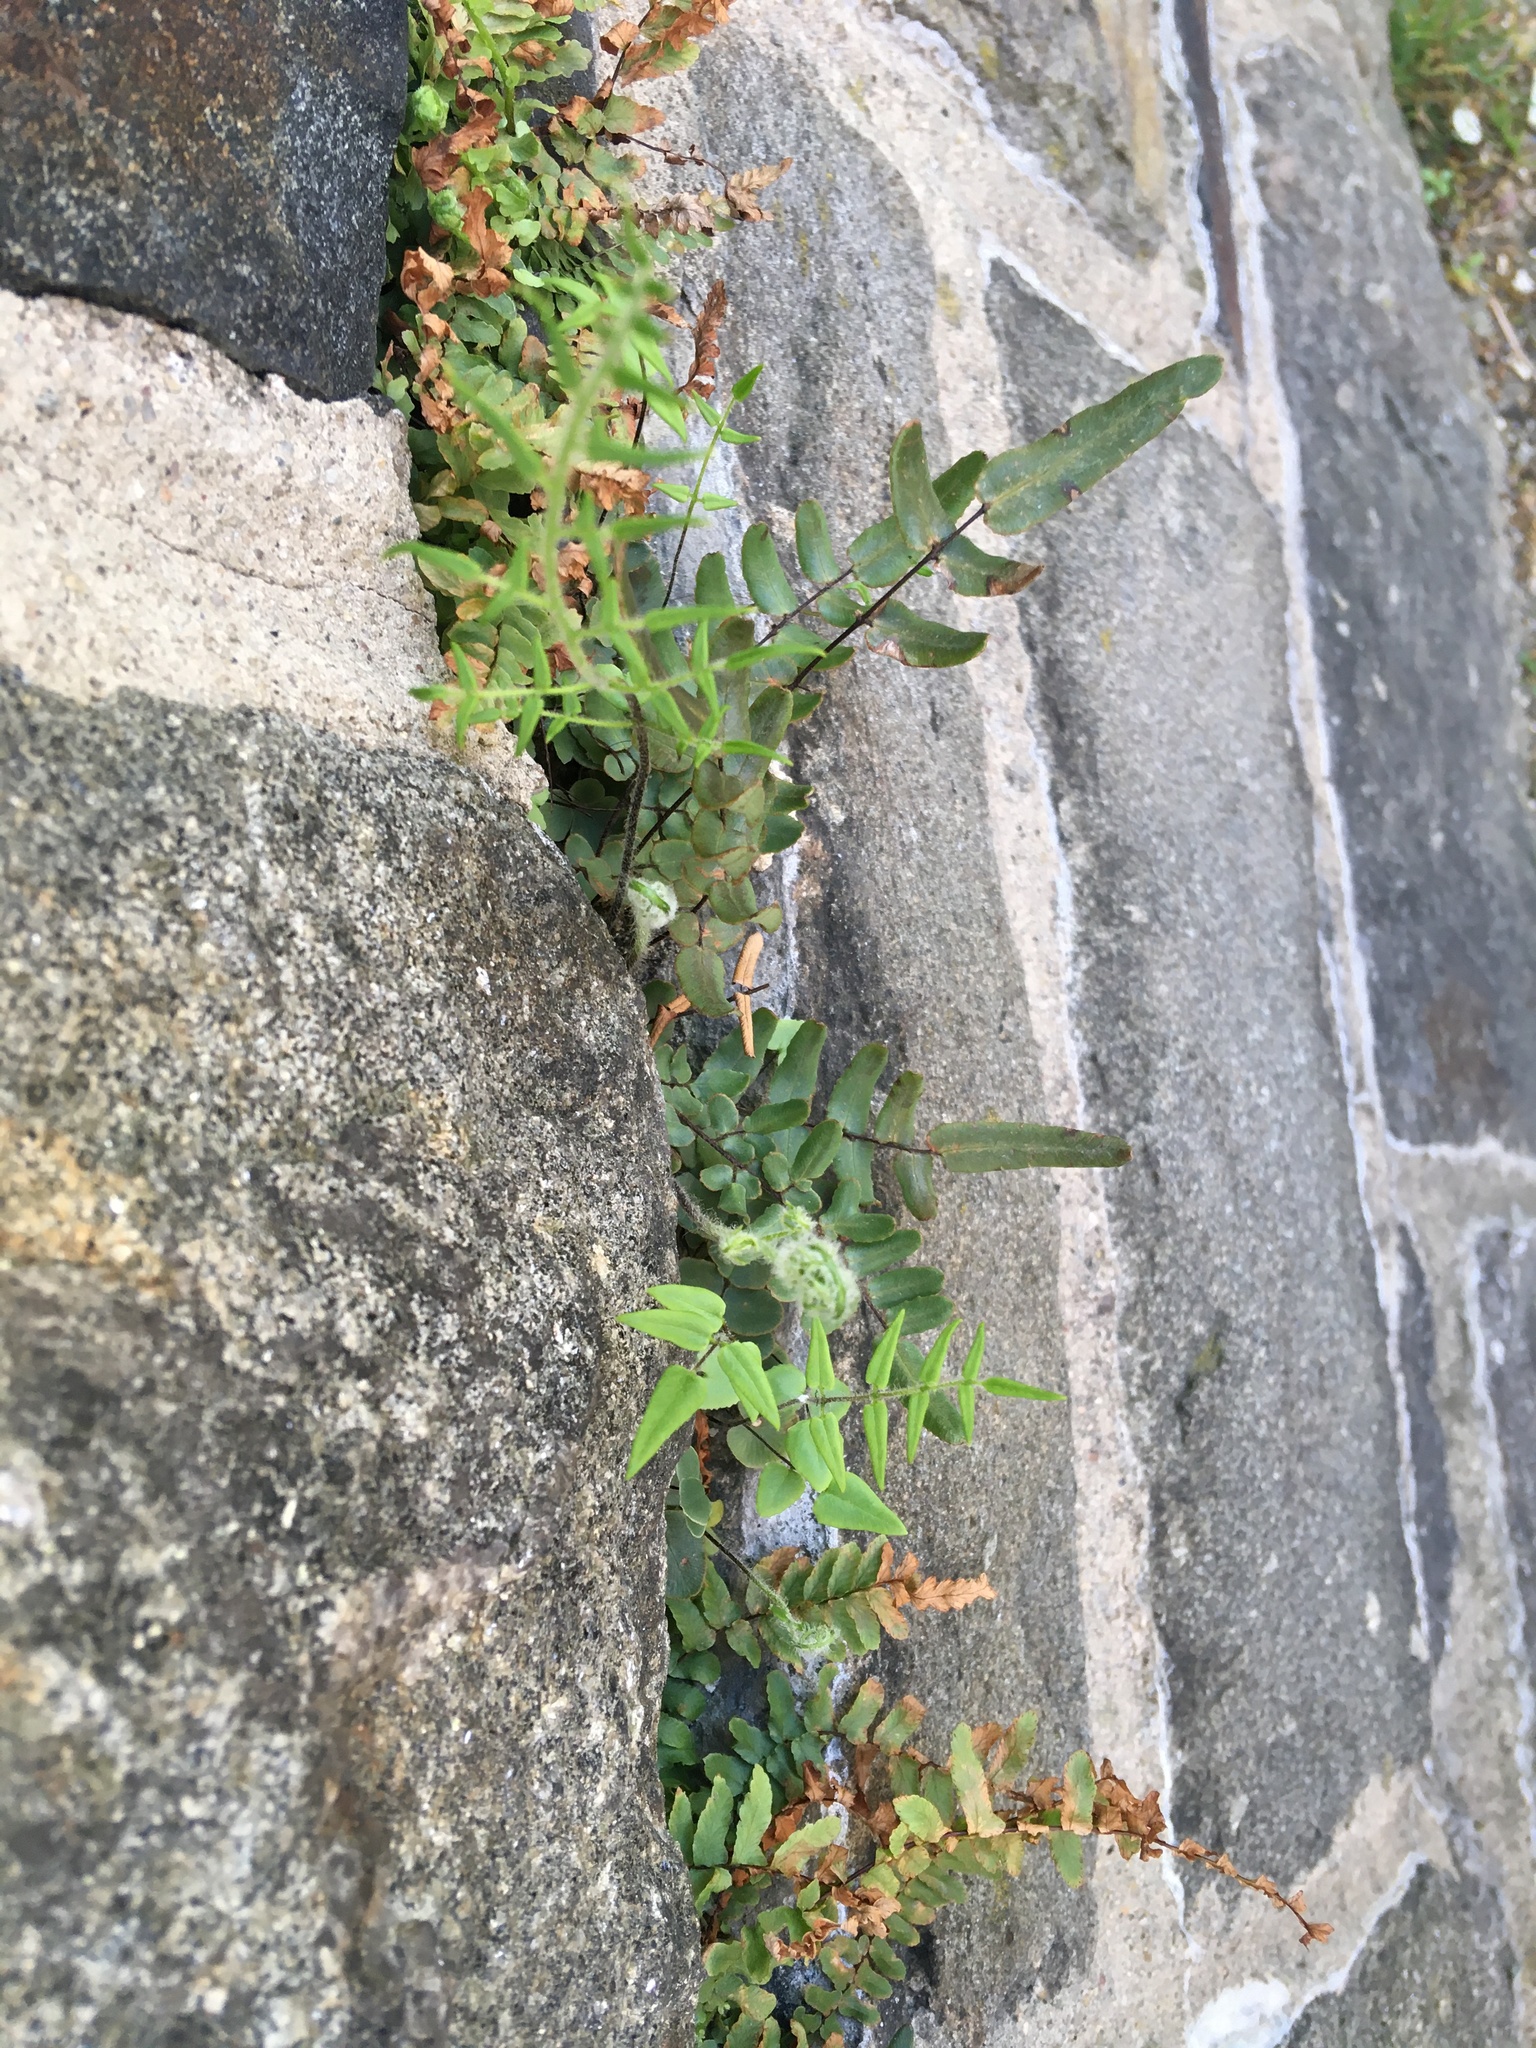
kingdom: Plantae
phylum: Tracheophyta
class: Polypodiopsida
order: Polypodiales
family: Pteridaceae
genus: Pellaea
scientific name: Pellaea atropurpurea
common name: Hairy cliffbrake
